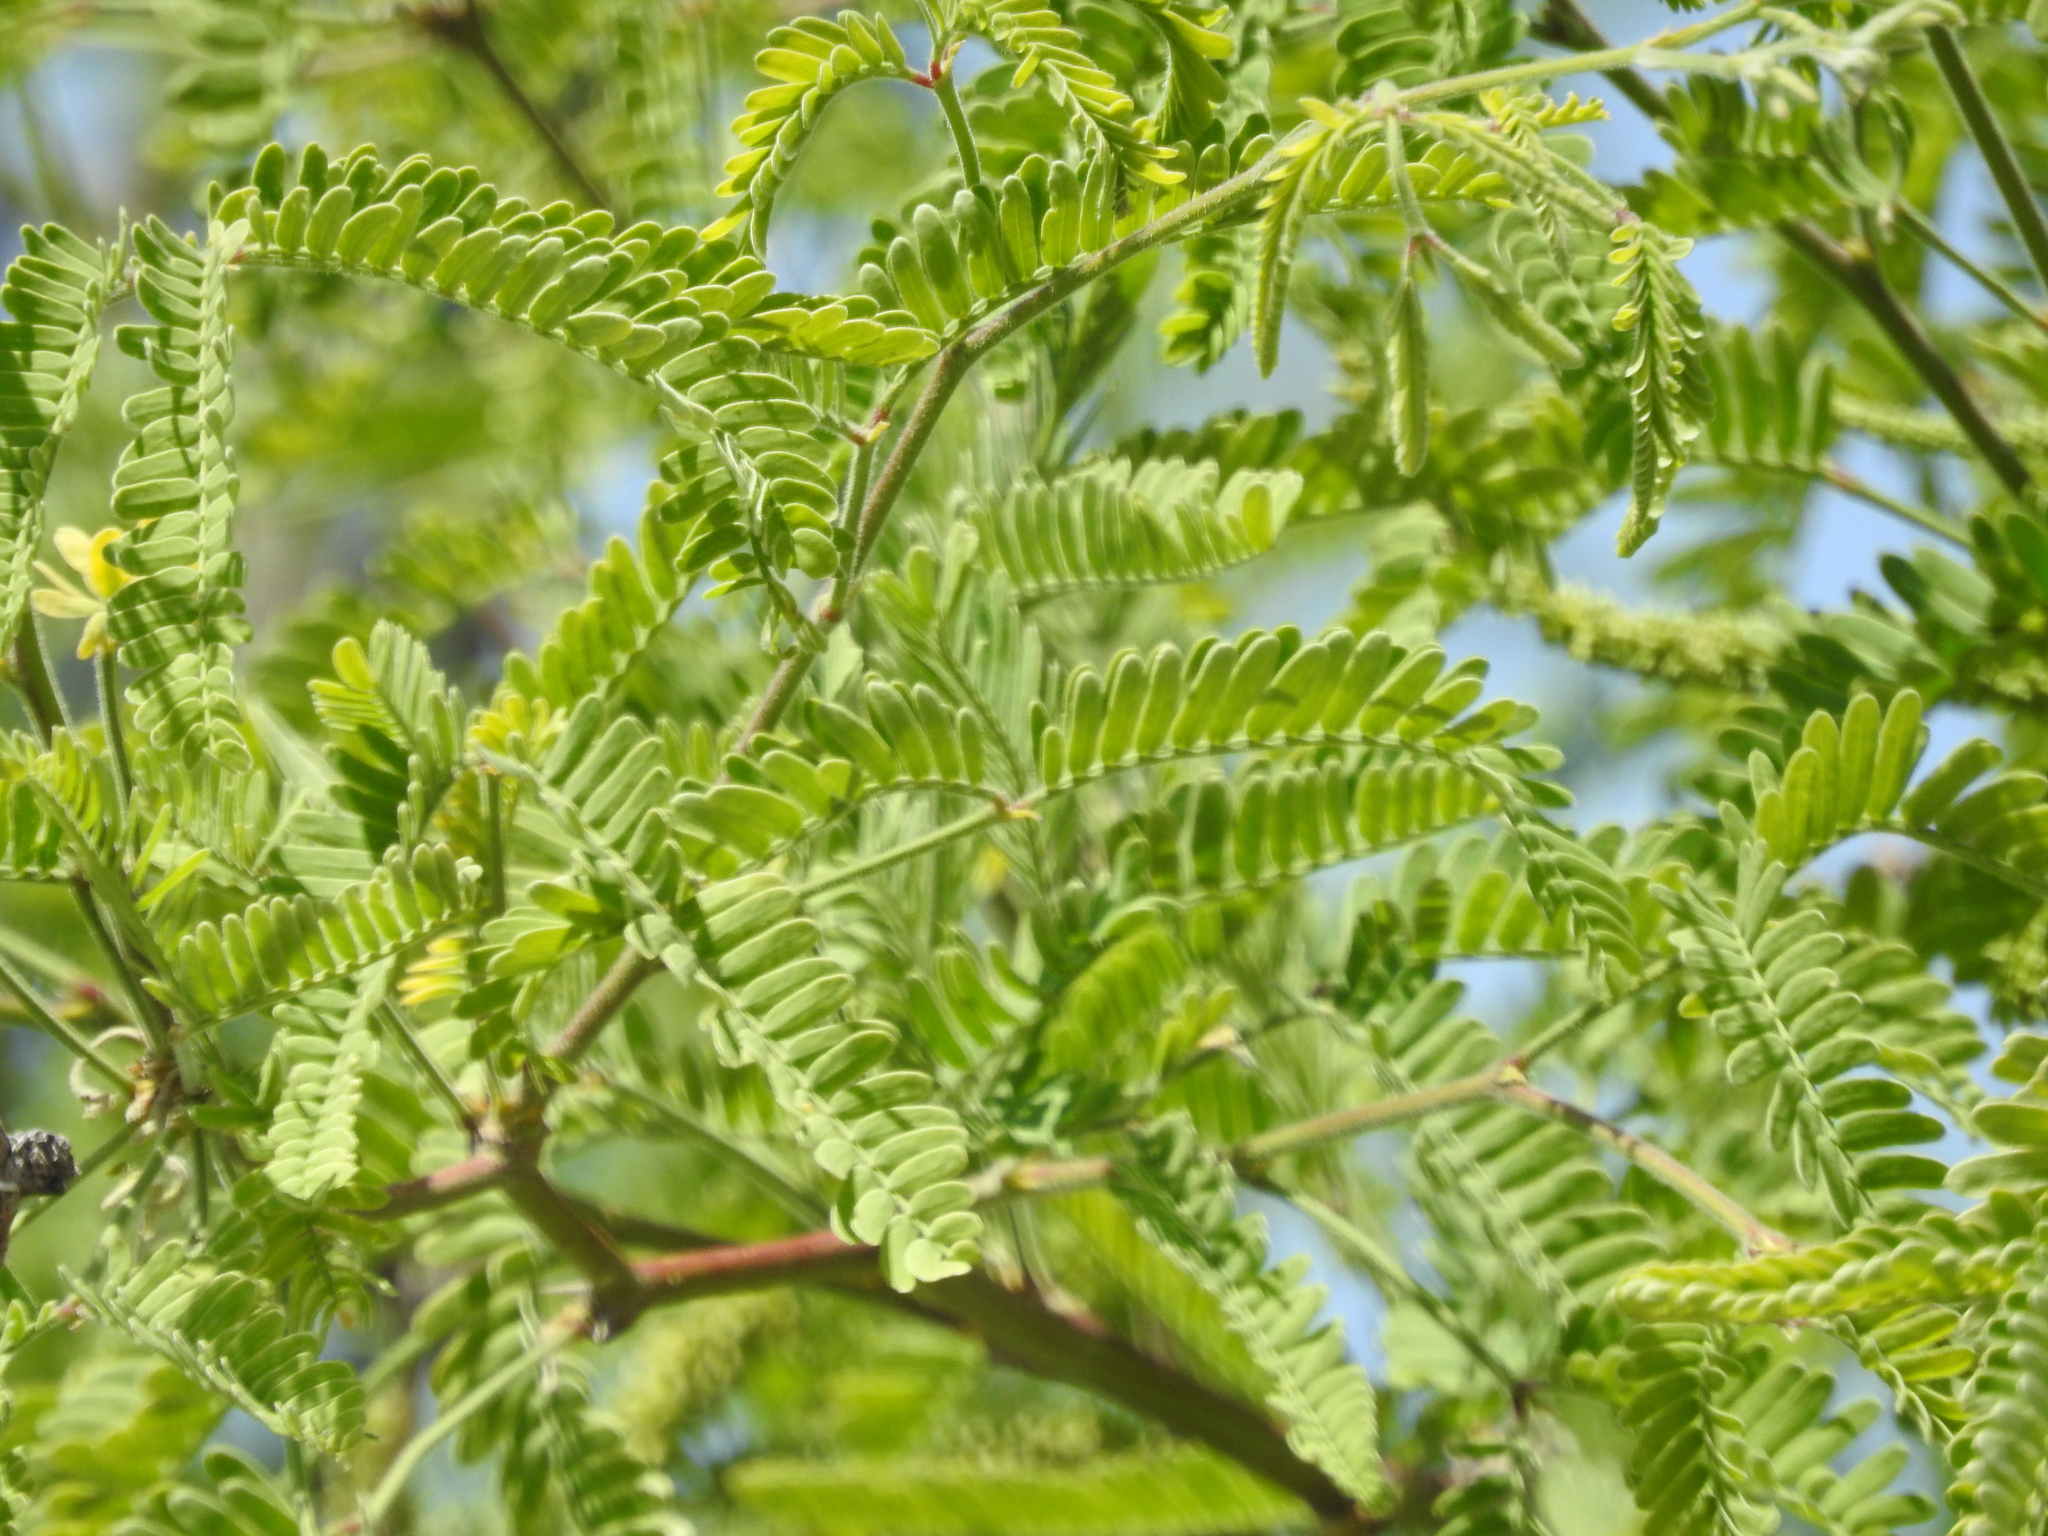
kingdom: Plantae
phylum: Tracheophyta
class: Magnoliopsida
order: Fabales
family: Fabaceae
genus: Prosopis
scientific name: Prosopis velutina
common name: Velvet mesquite
